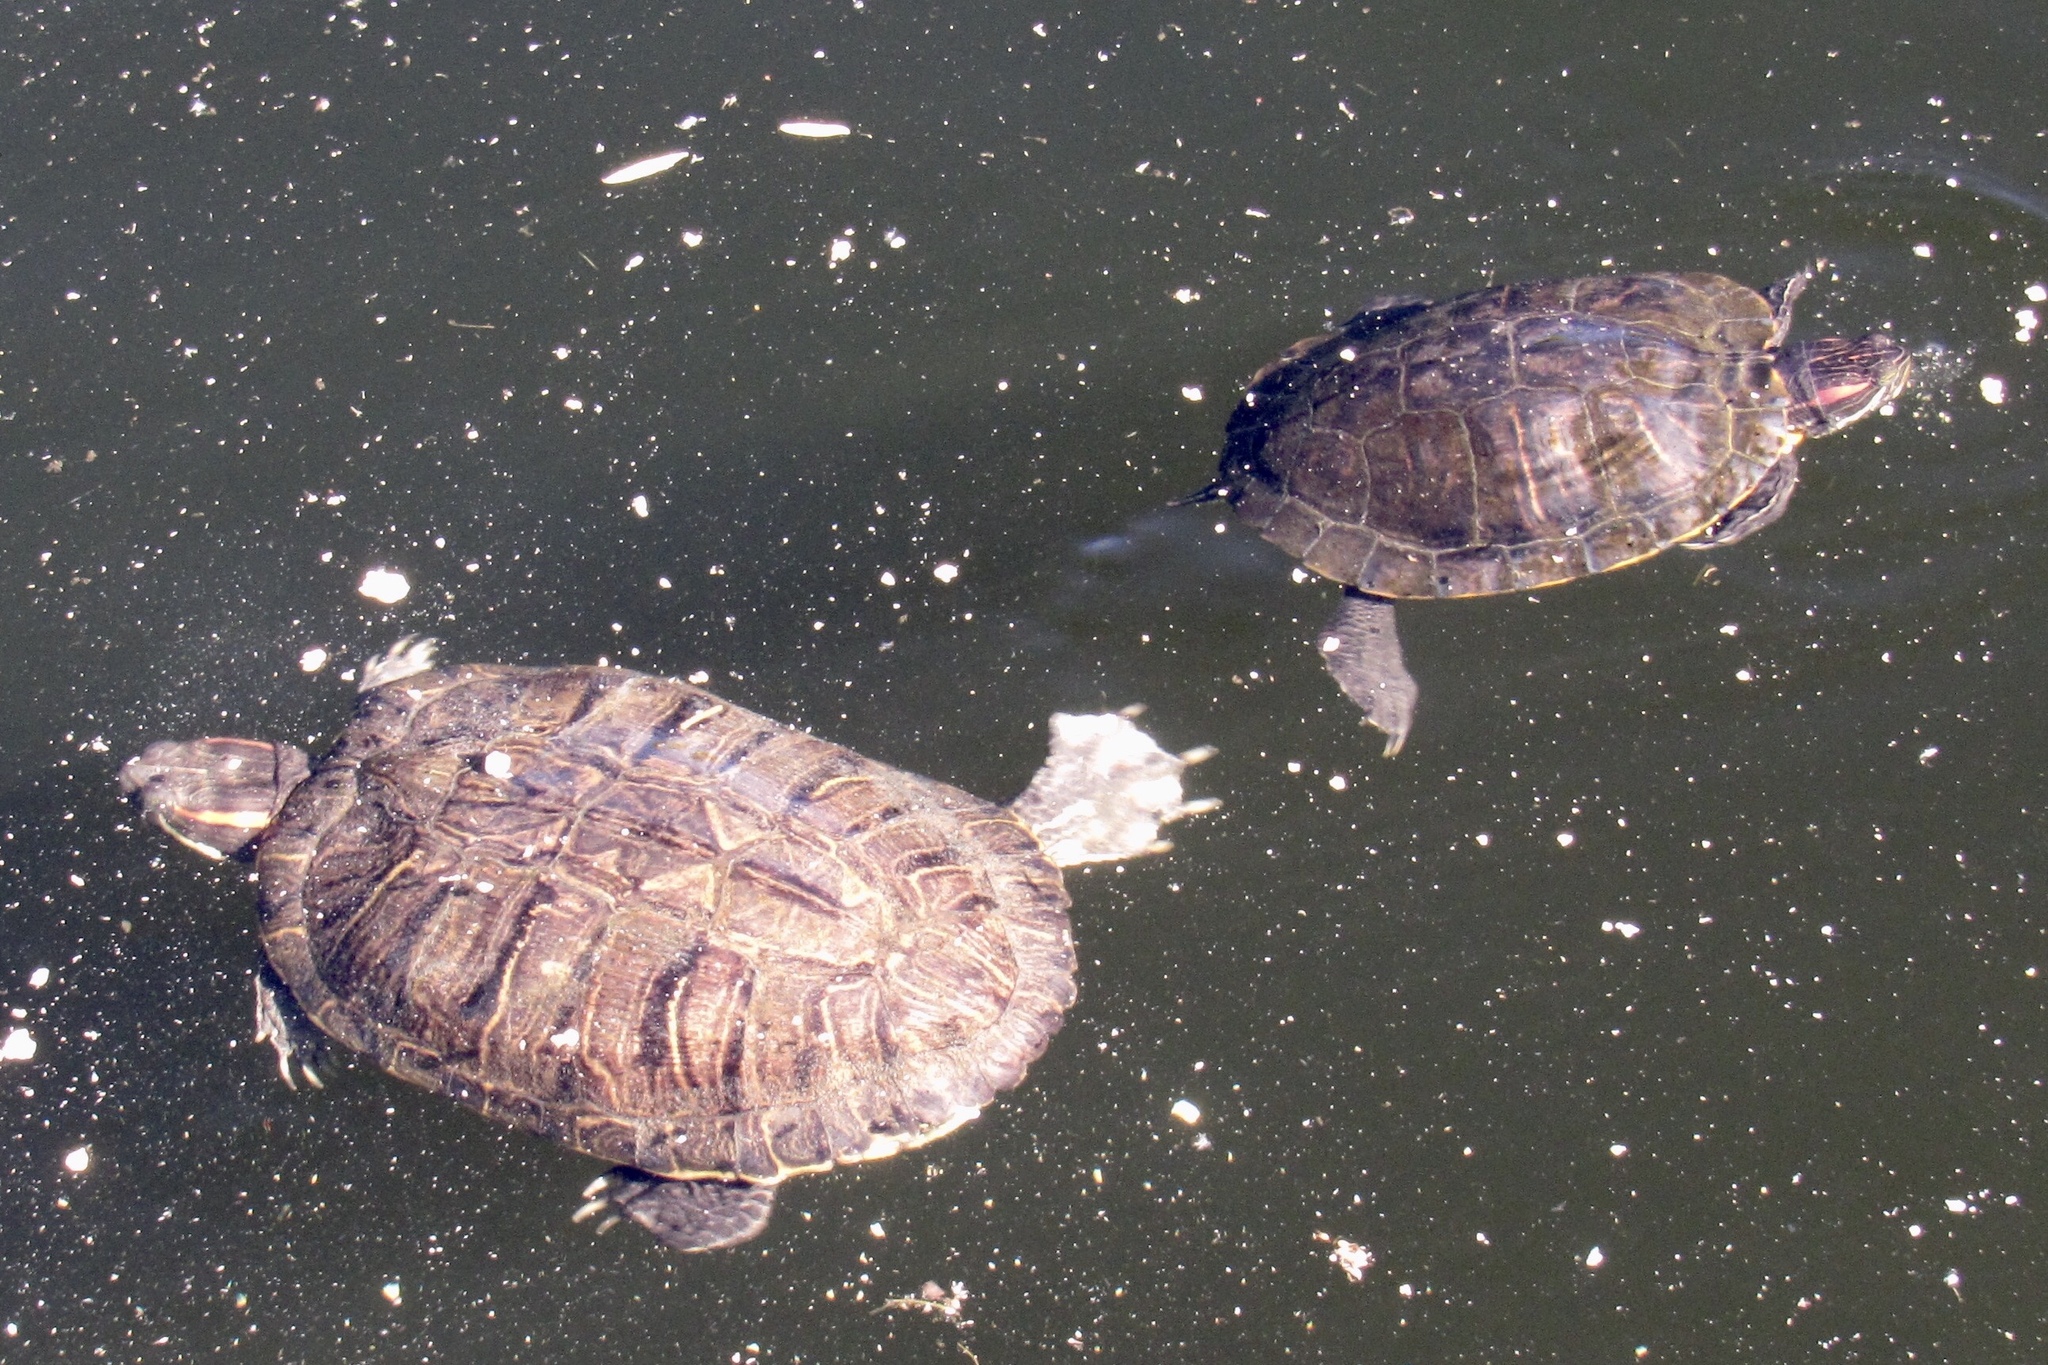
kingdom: Animalia
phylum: Chordata
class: Testudines
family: Emydidae
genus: Trachemys
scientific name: Trachemys scripta
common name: Slider
